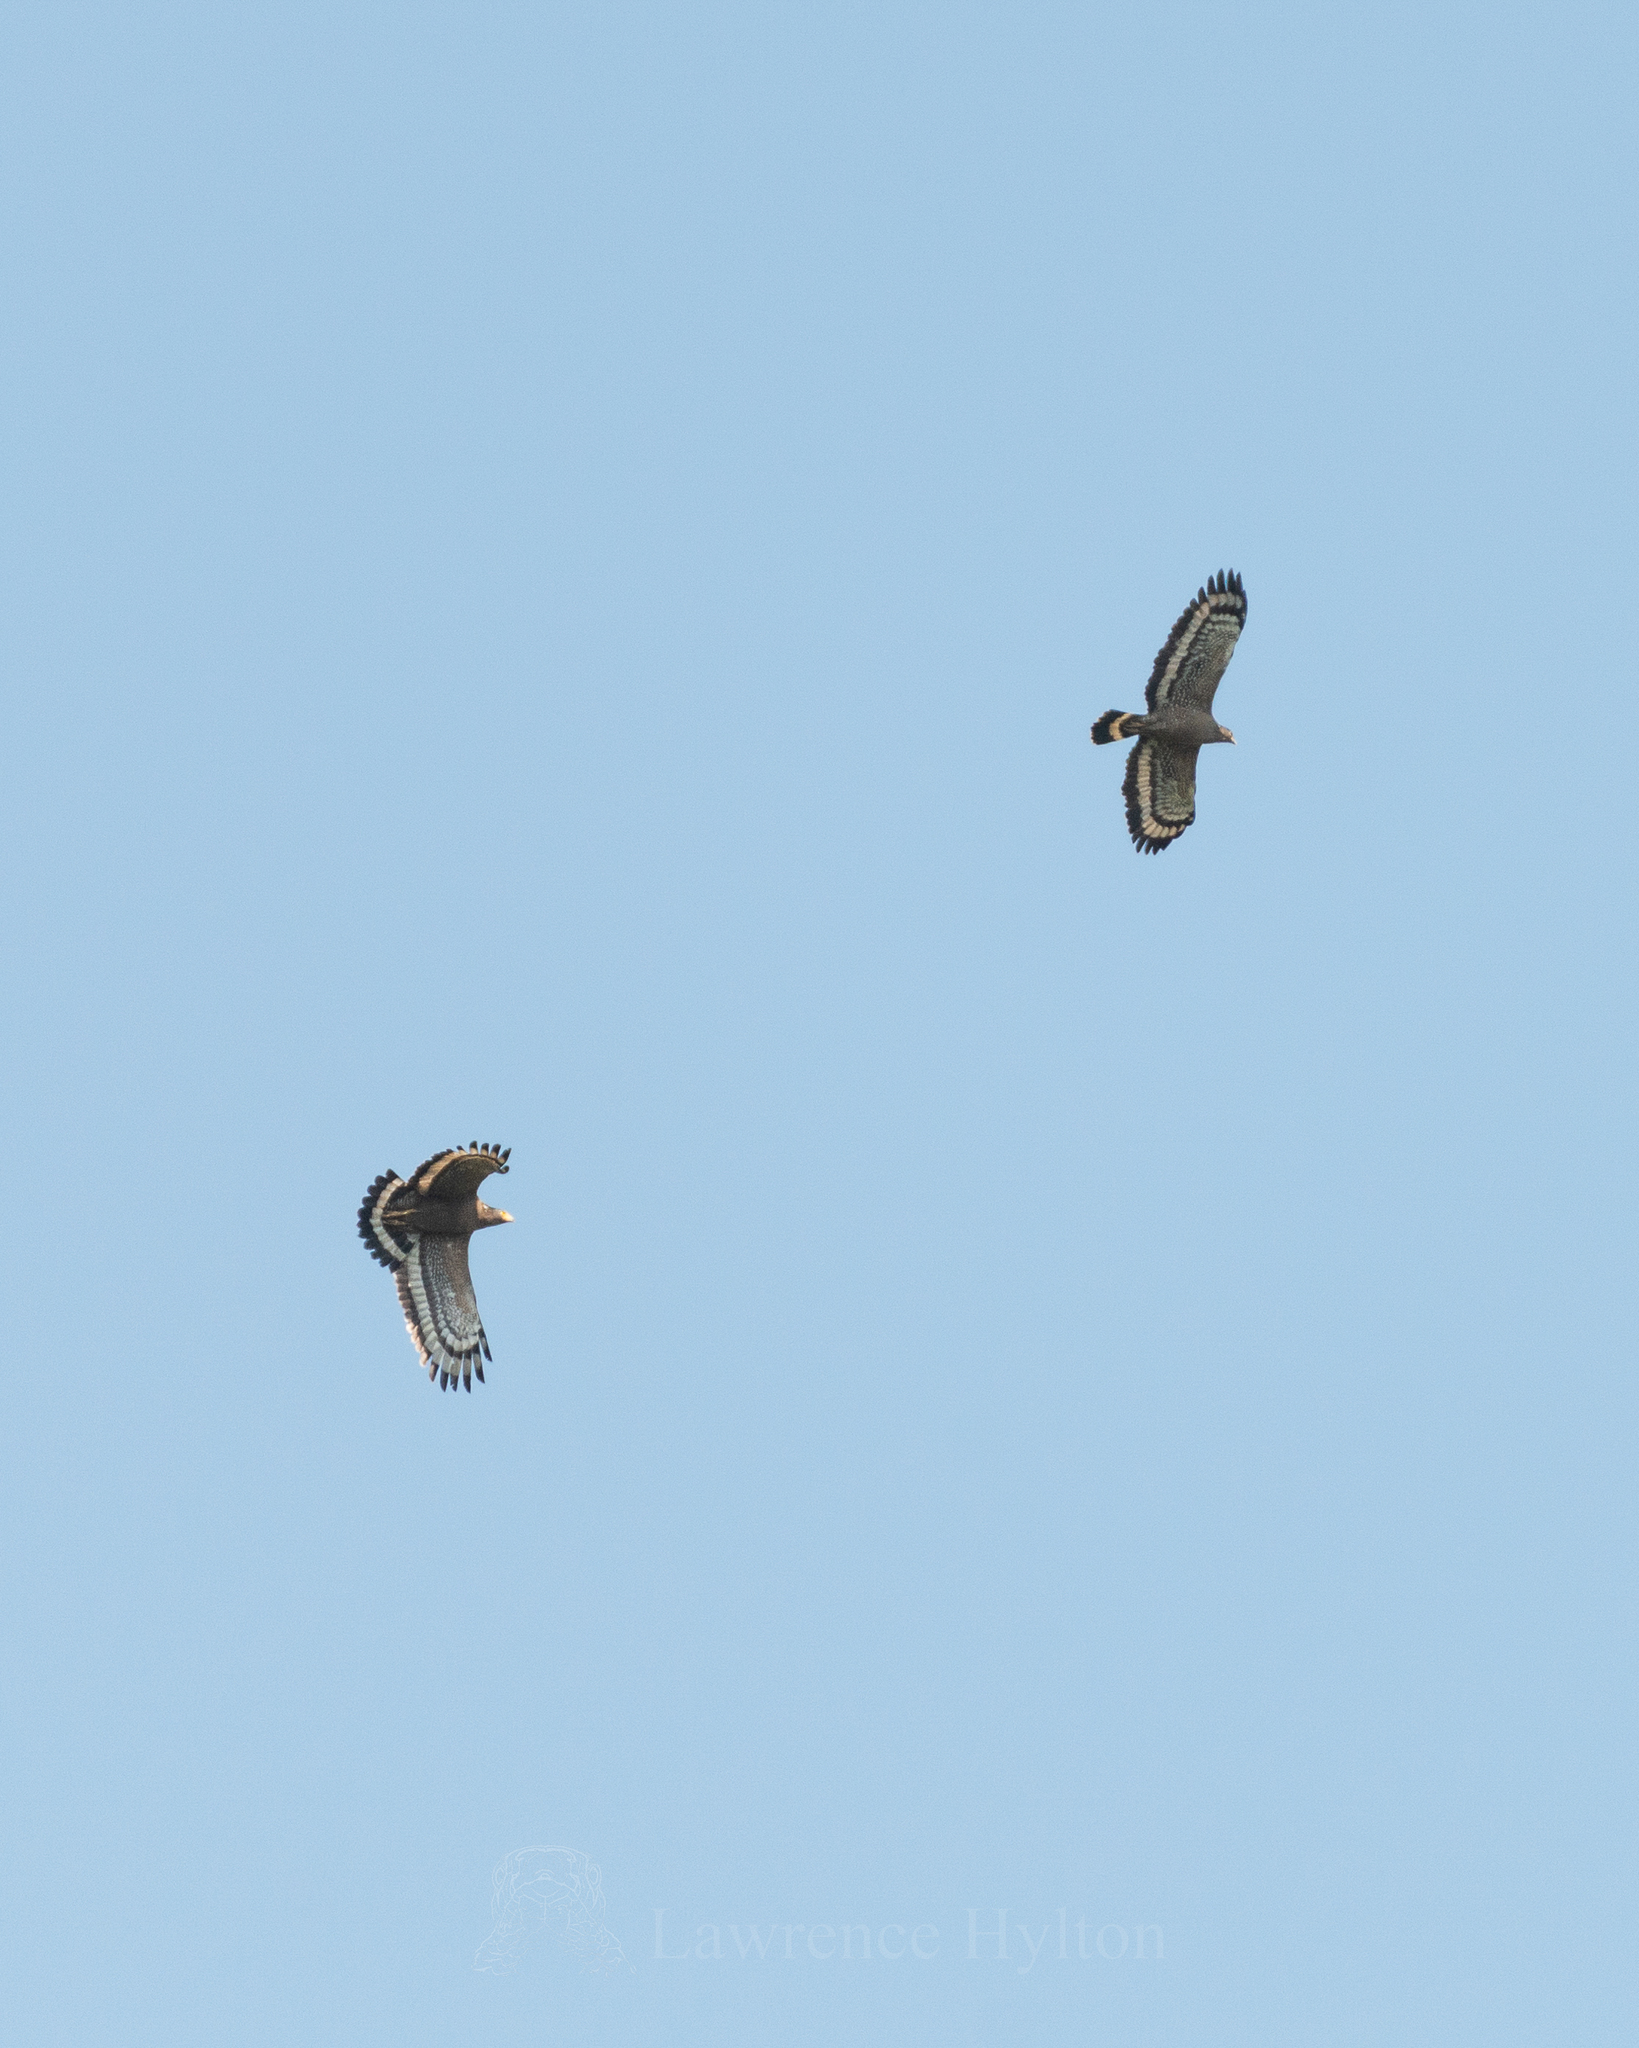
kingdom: Animalia
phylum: Chordata
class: Aves
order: Accipitriformes
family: Accipitridae
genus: Spilornis
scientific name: Spilornis cheela
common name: Crested serpent eagle
